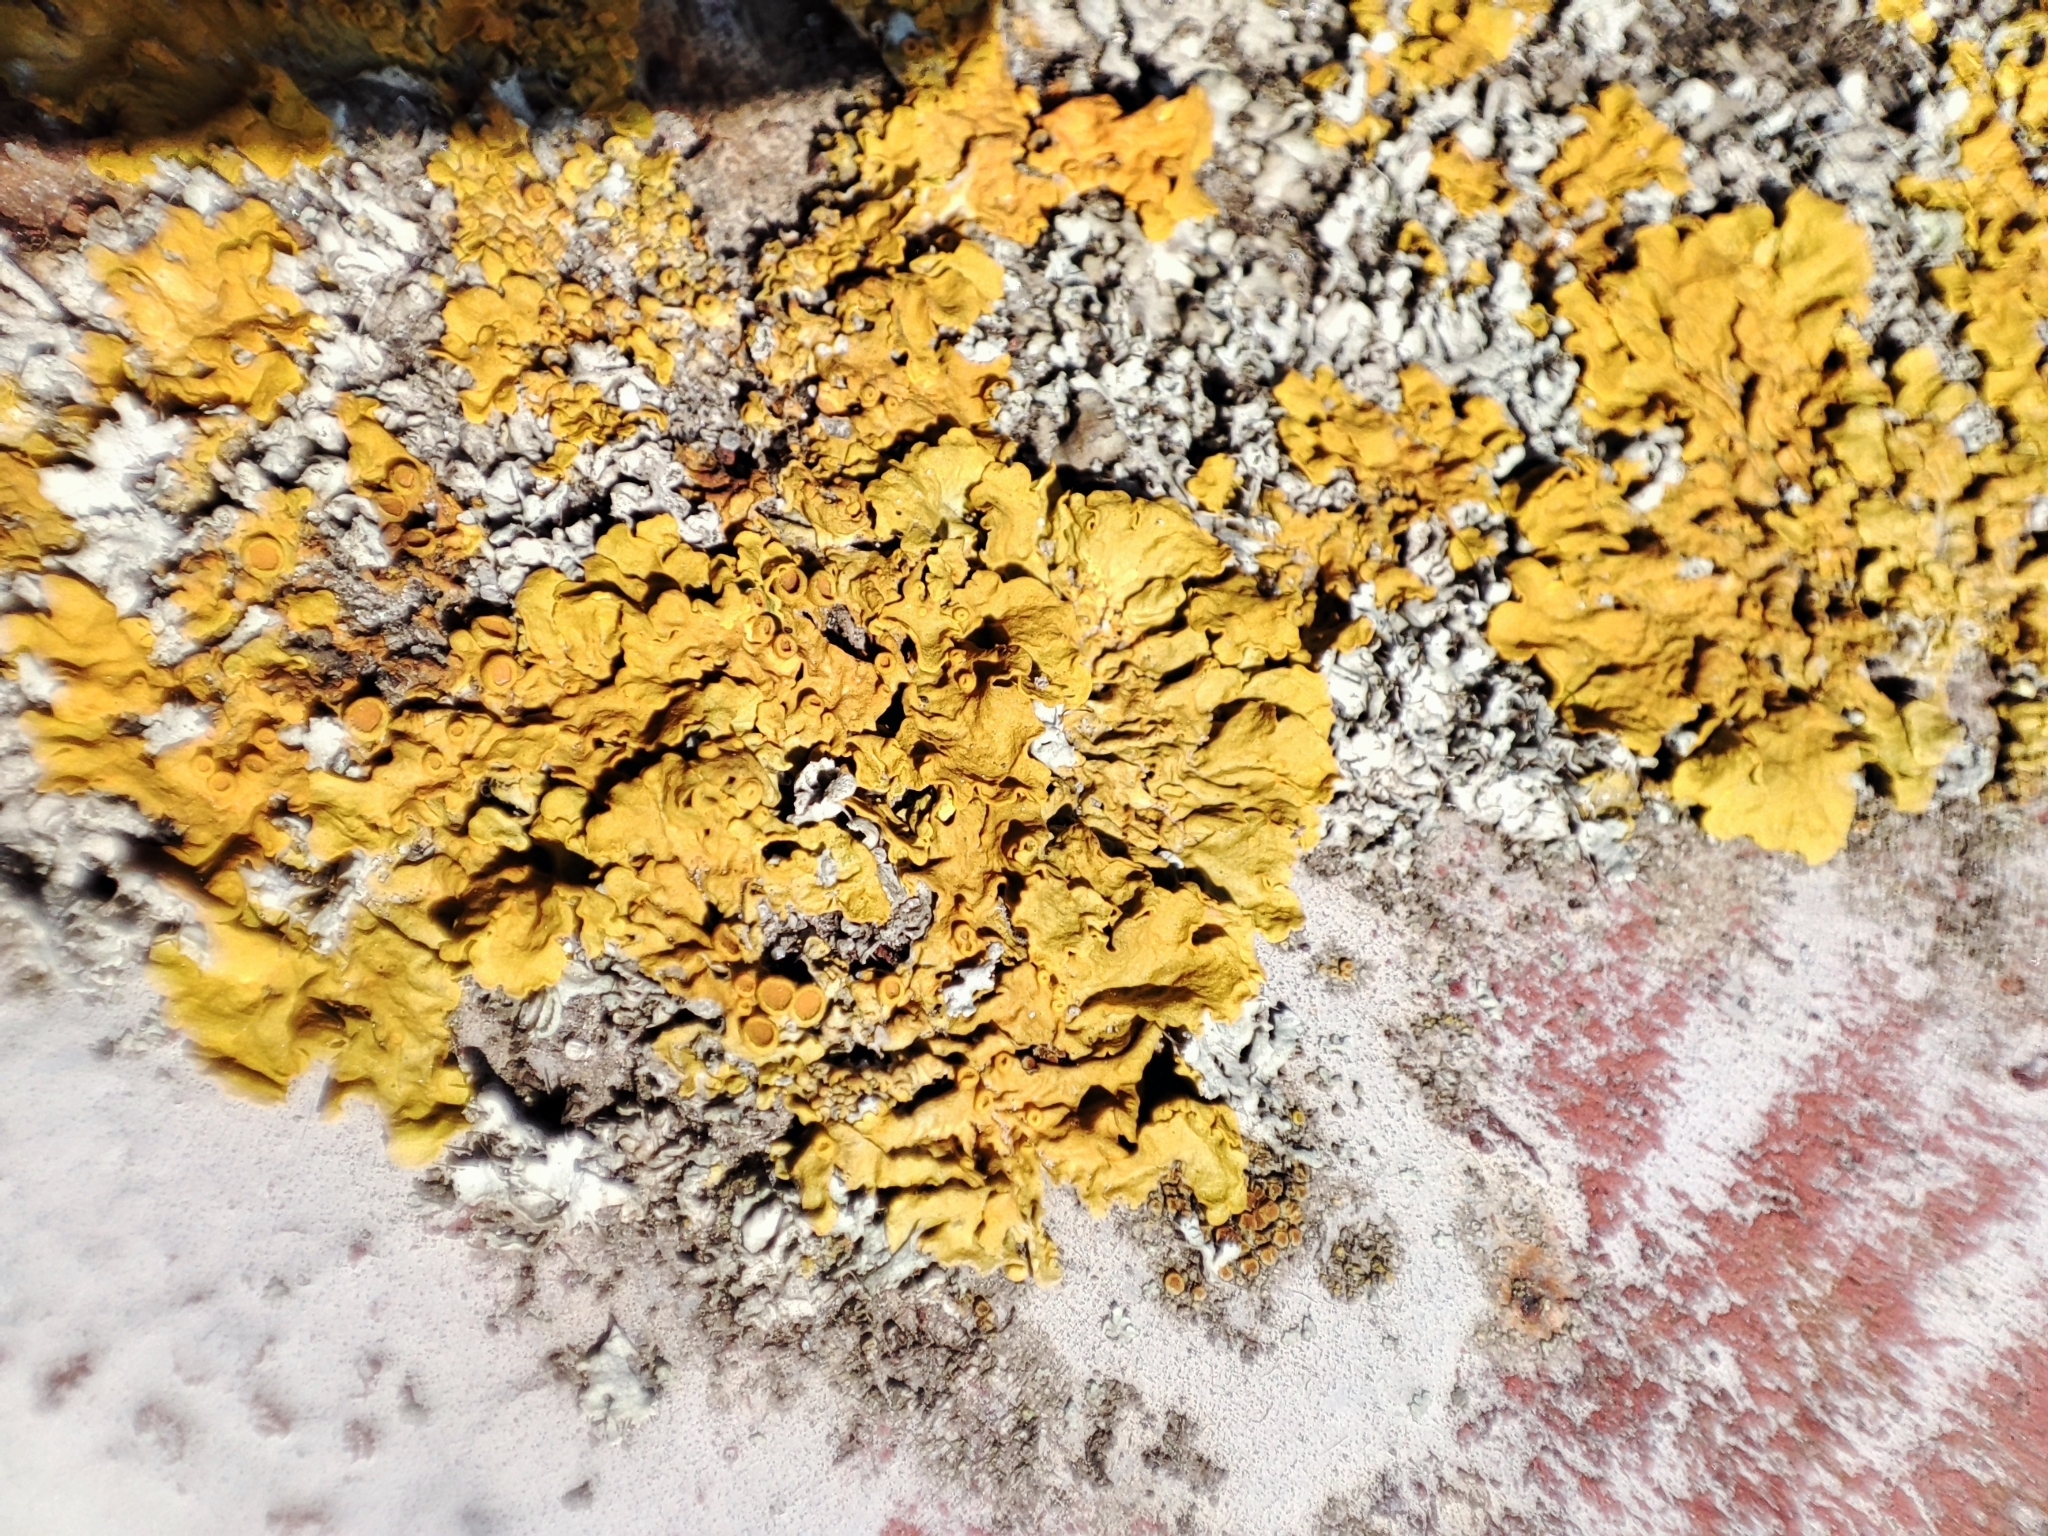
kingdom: Fungi
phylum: Ascomycota
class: Lecanoromycetes
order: Teloschistales
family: Teloschistaceae
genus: Xanthoria
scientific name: Xanthoria parietina
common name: Common orange lichen
